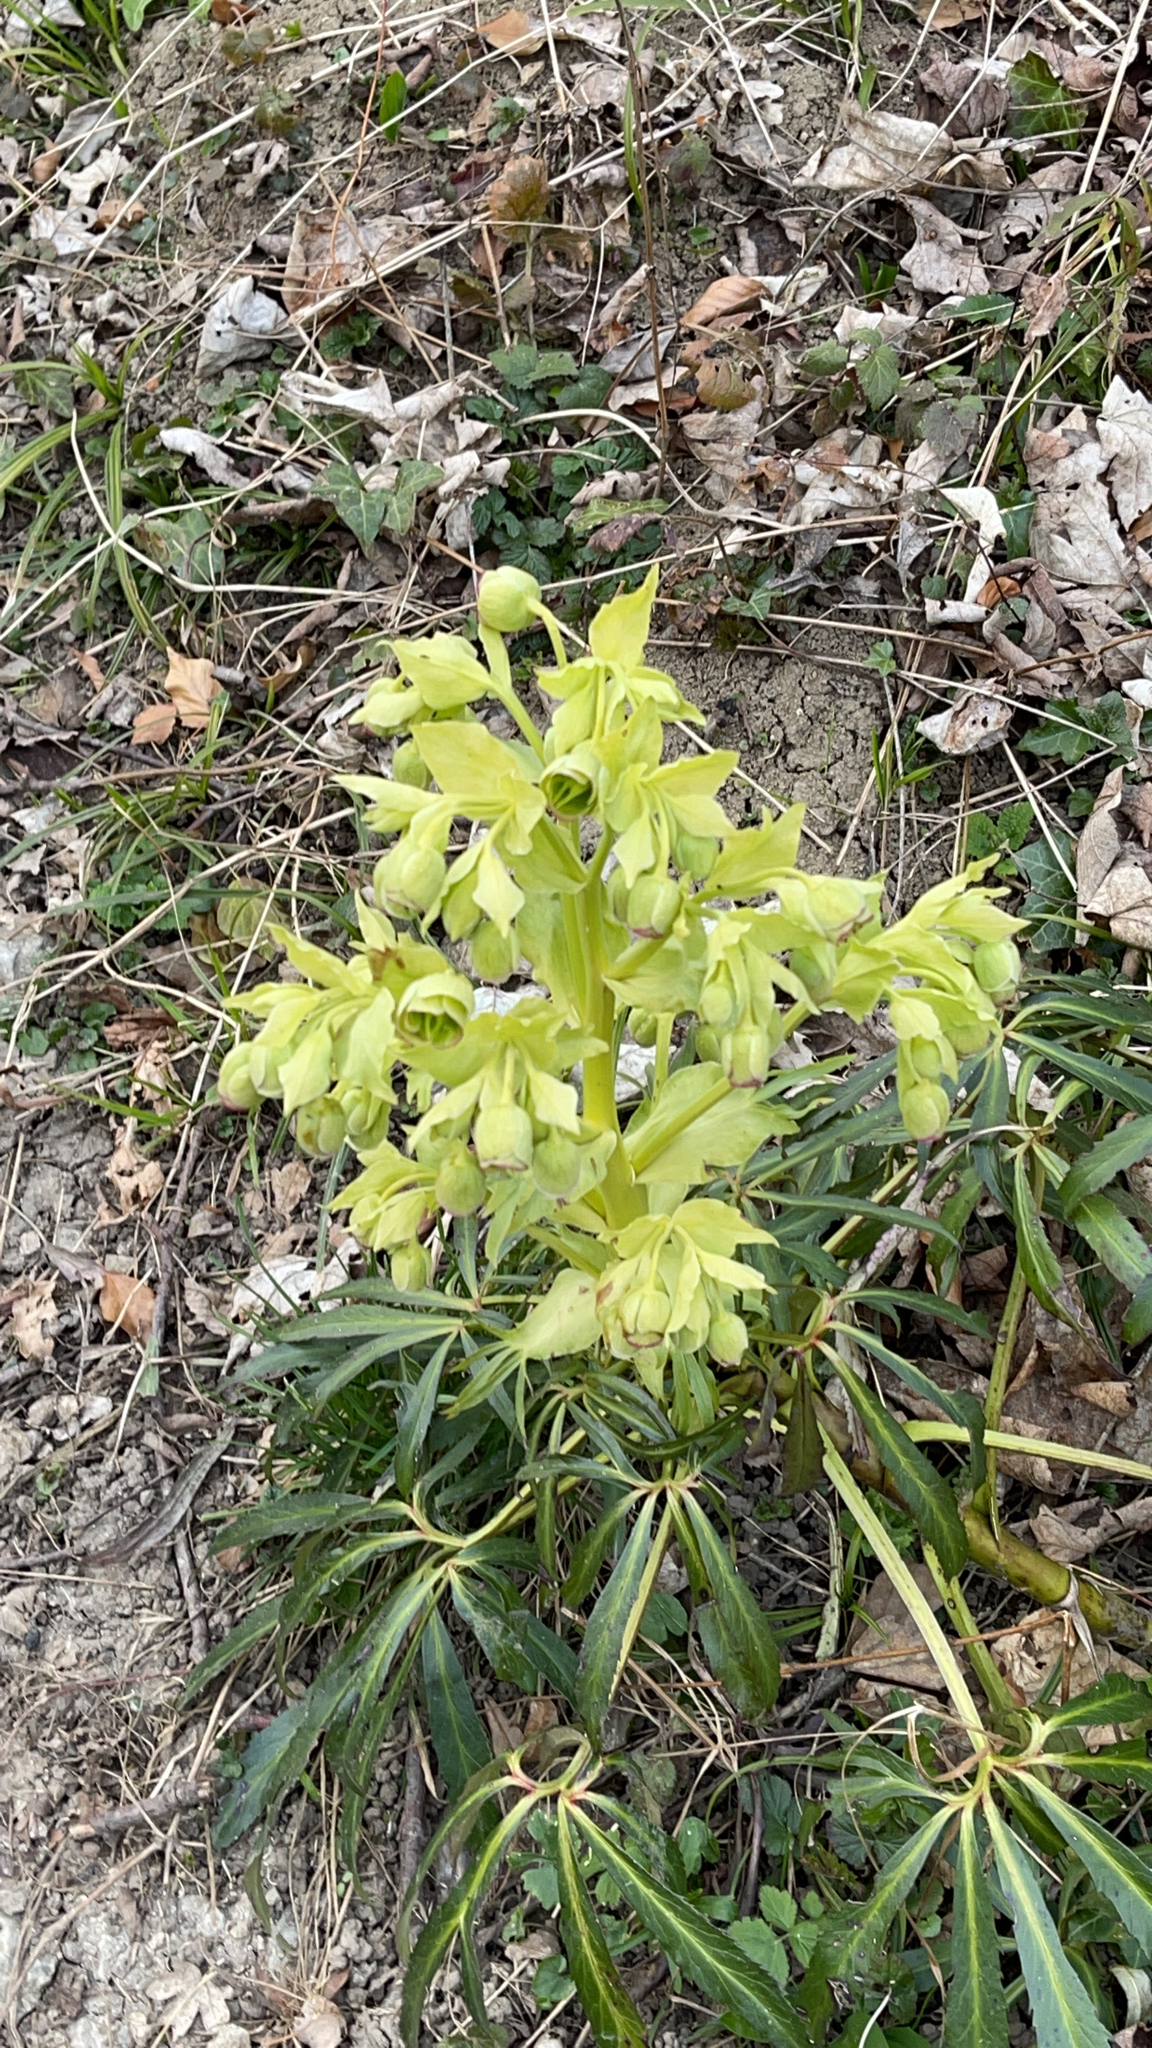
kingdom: Plantae
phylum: Tracheophyta
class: Magnoliopsida
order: Ranunculales
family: Ranunculaceae
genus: Helleborus
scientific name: Helleborus foetidus
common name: Stinking hellebore
